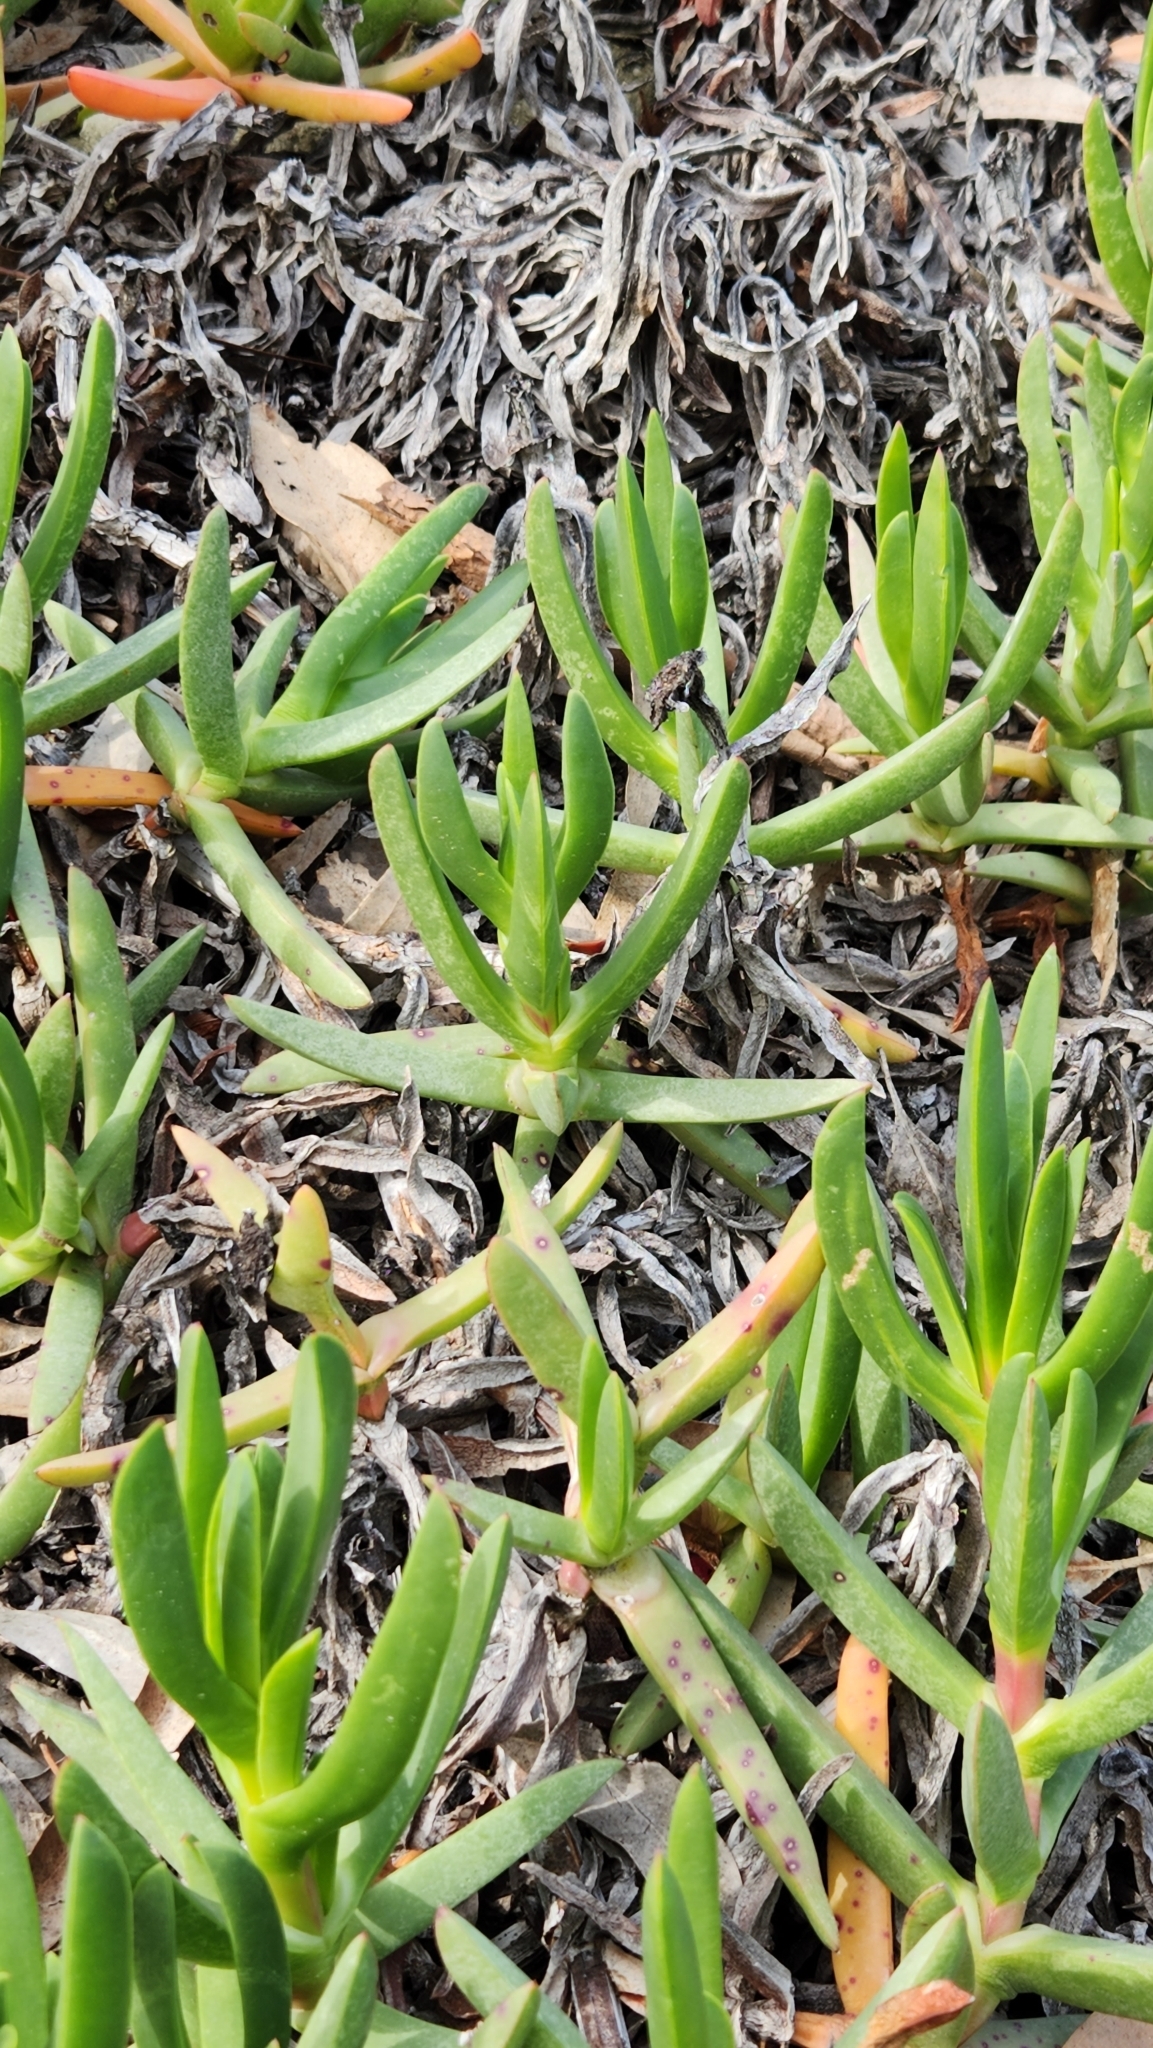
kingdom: Plantae
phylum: Tracheophyta
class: Magnoliopsida
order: Caryophyllales
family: Aizoaceae
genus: Carpobrotus
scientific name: Carpobrotus edulis
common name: Hottentot-fig
